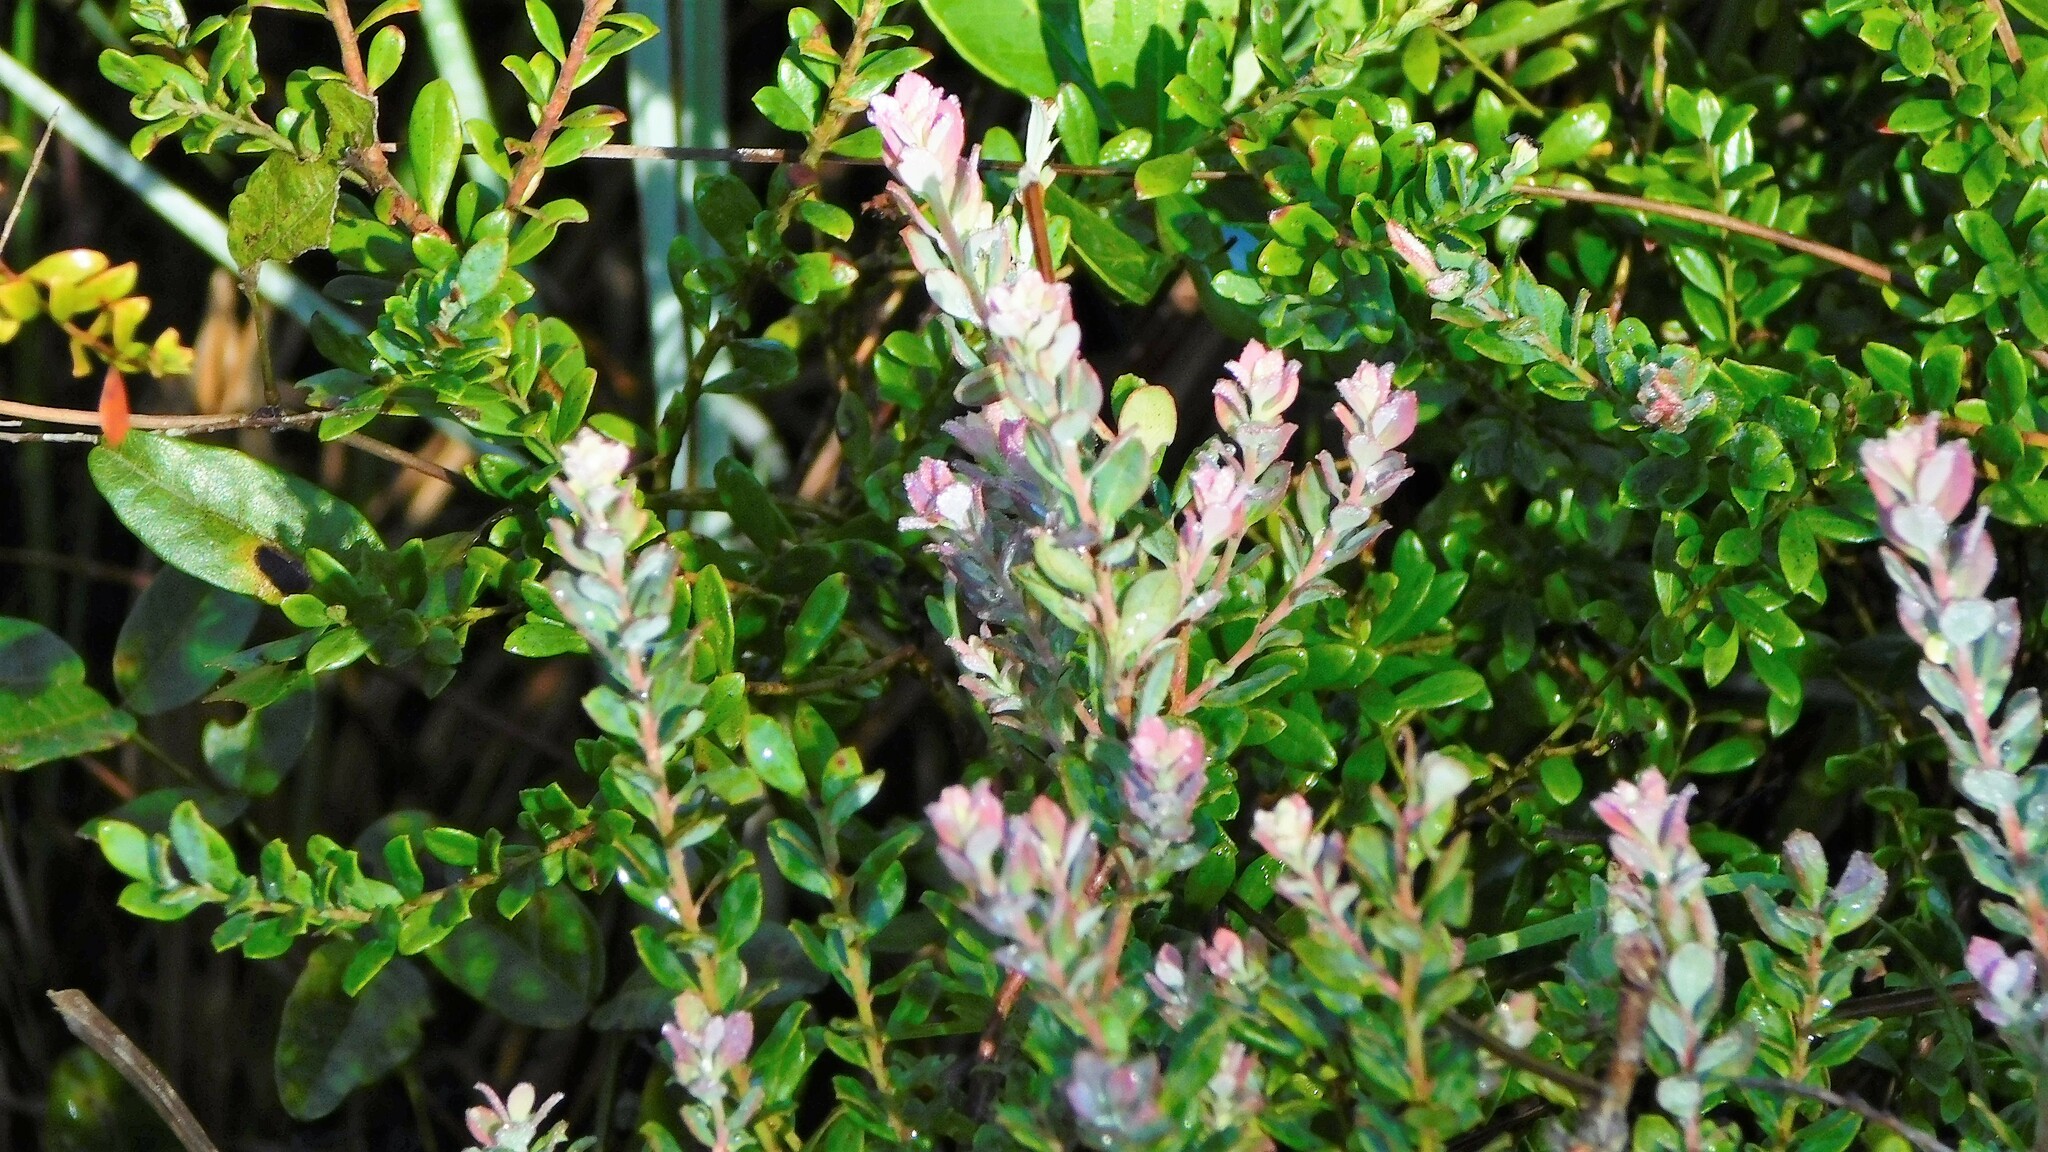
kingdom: Plantae
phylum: Tracheophyta
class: Magnoliopsida
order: Ericales
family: Ericaceae
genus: Vaccinium
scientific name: Vaccinium darrowii
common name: Darrow's blueberry
